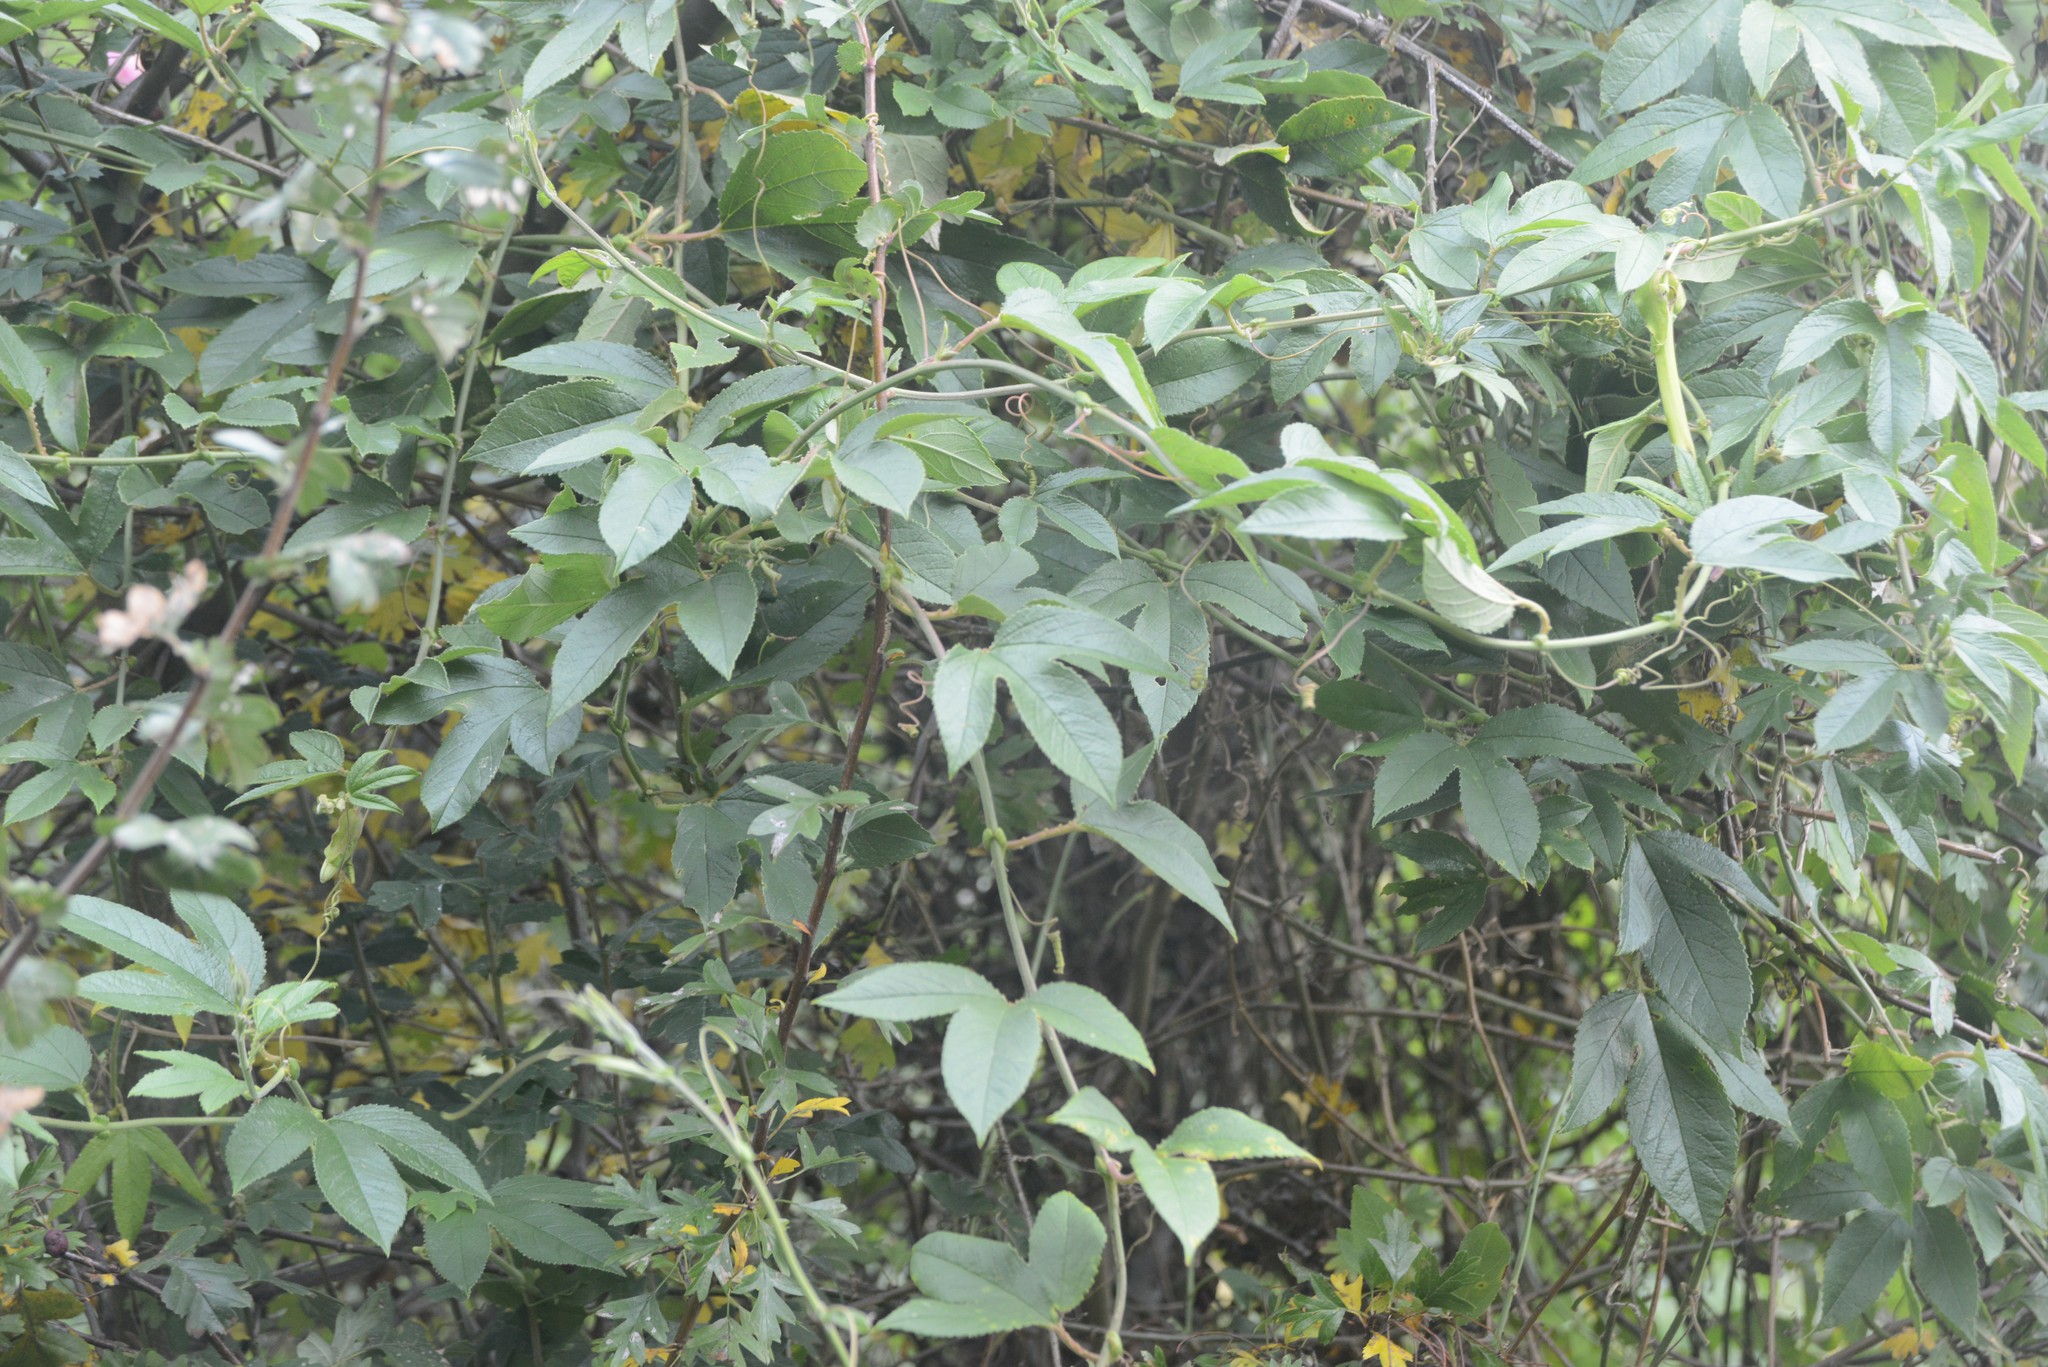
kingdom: Plantae
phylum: Tracheophyta
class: Magnoliopsida
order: Malpighiales
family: Passifloraceae
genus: Passiflora
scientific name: Passiflora tripartita
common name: Banana poka
